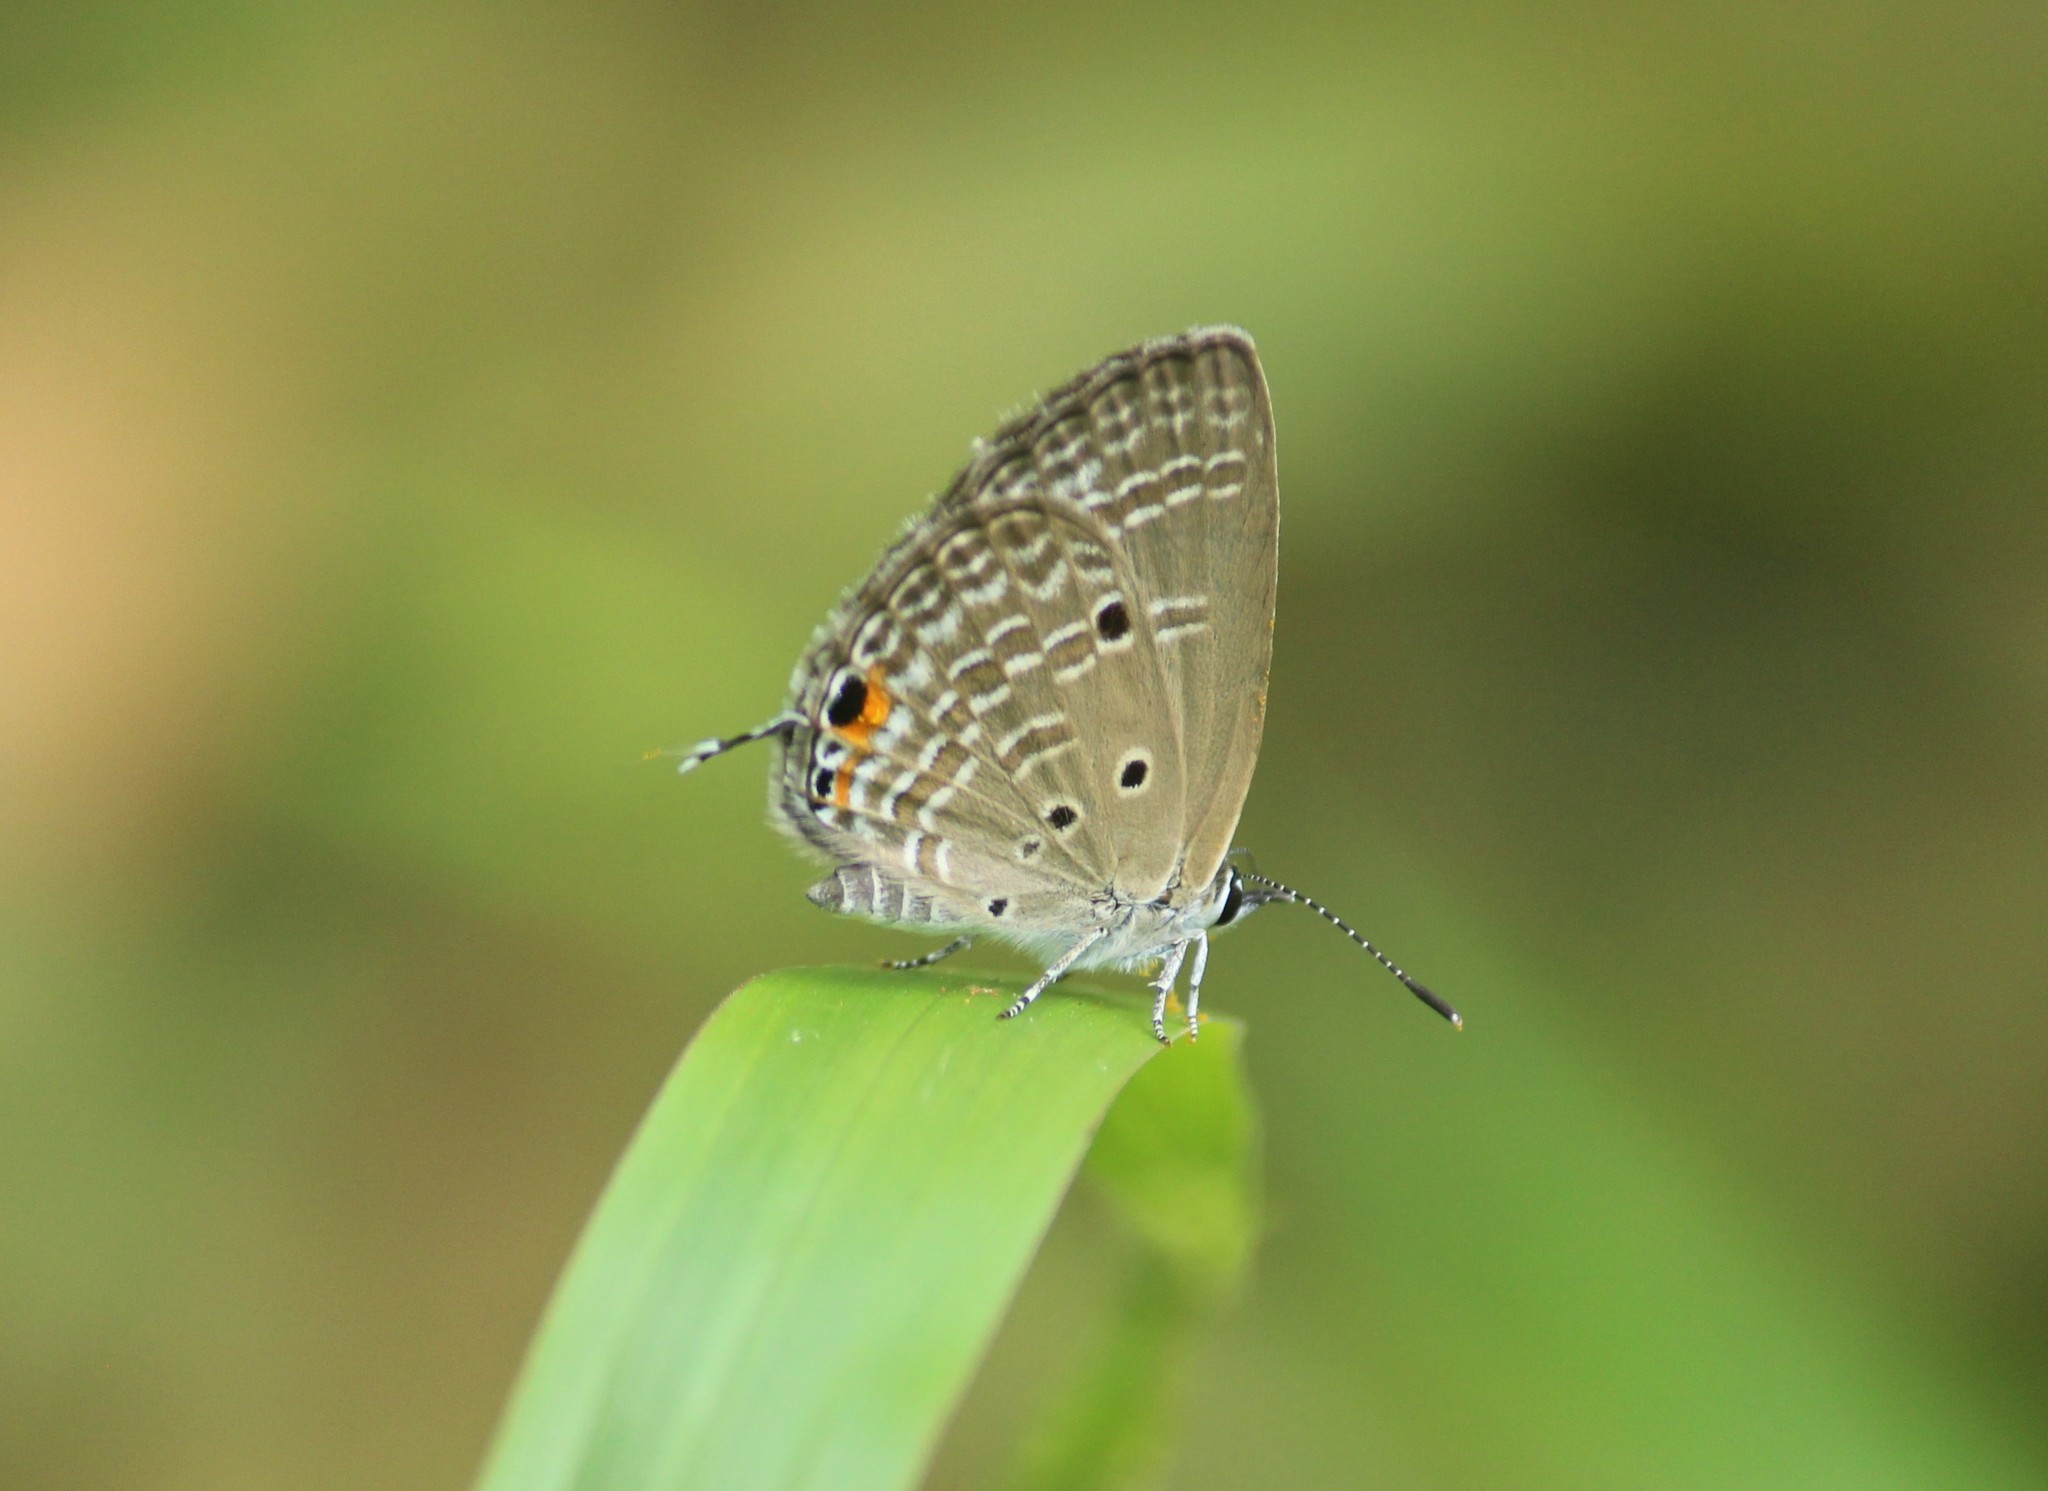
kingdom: Animalia
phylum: Arthropoda
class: Insecta
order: Lepidoptera
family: Lycaenidae
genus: Luthrodes
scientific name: Luthrodes pandava
